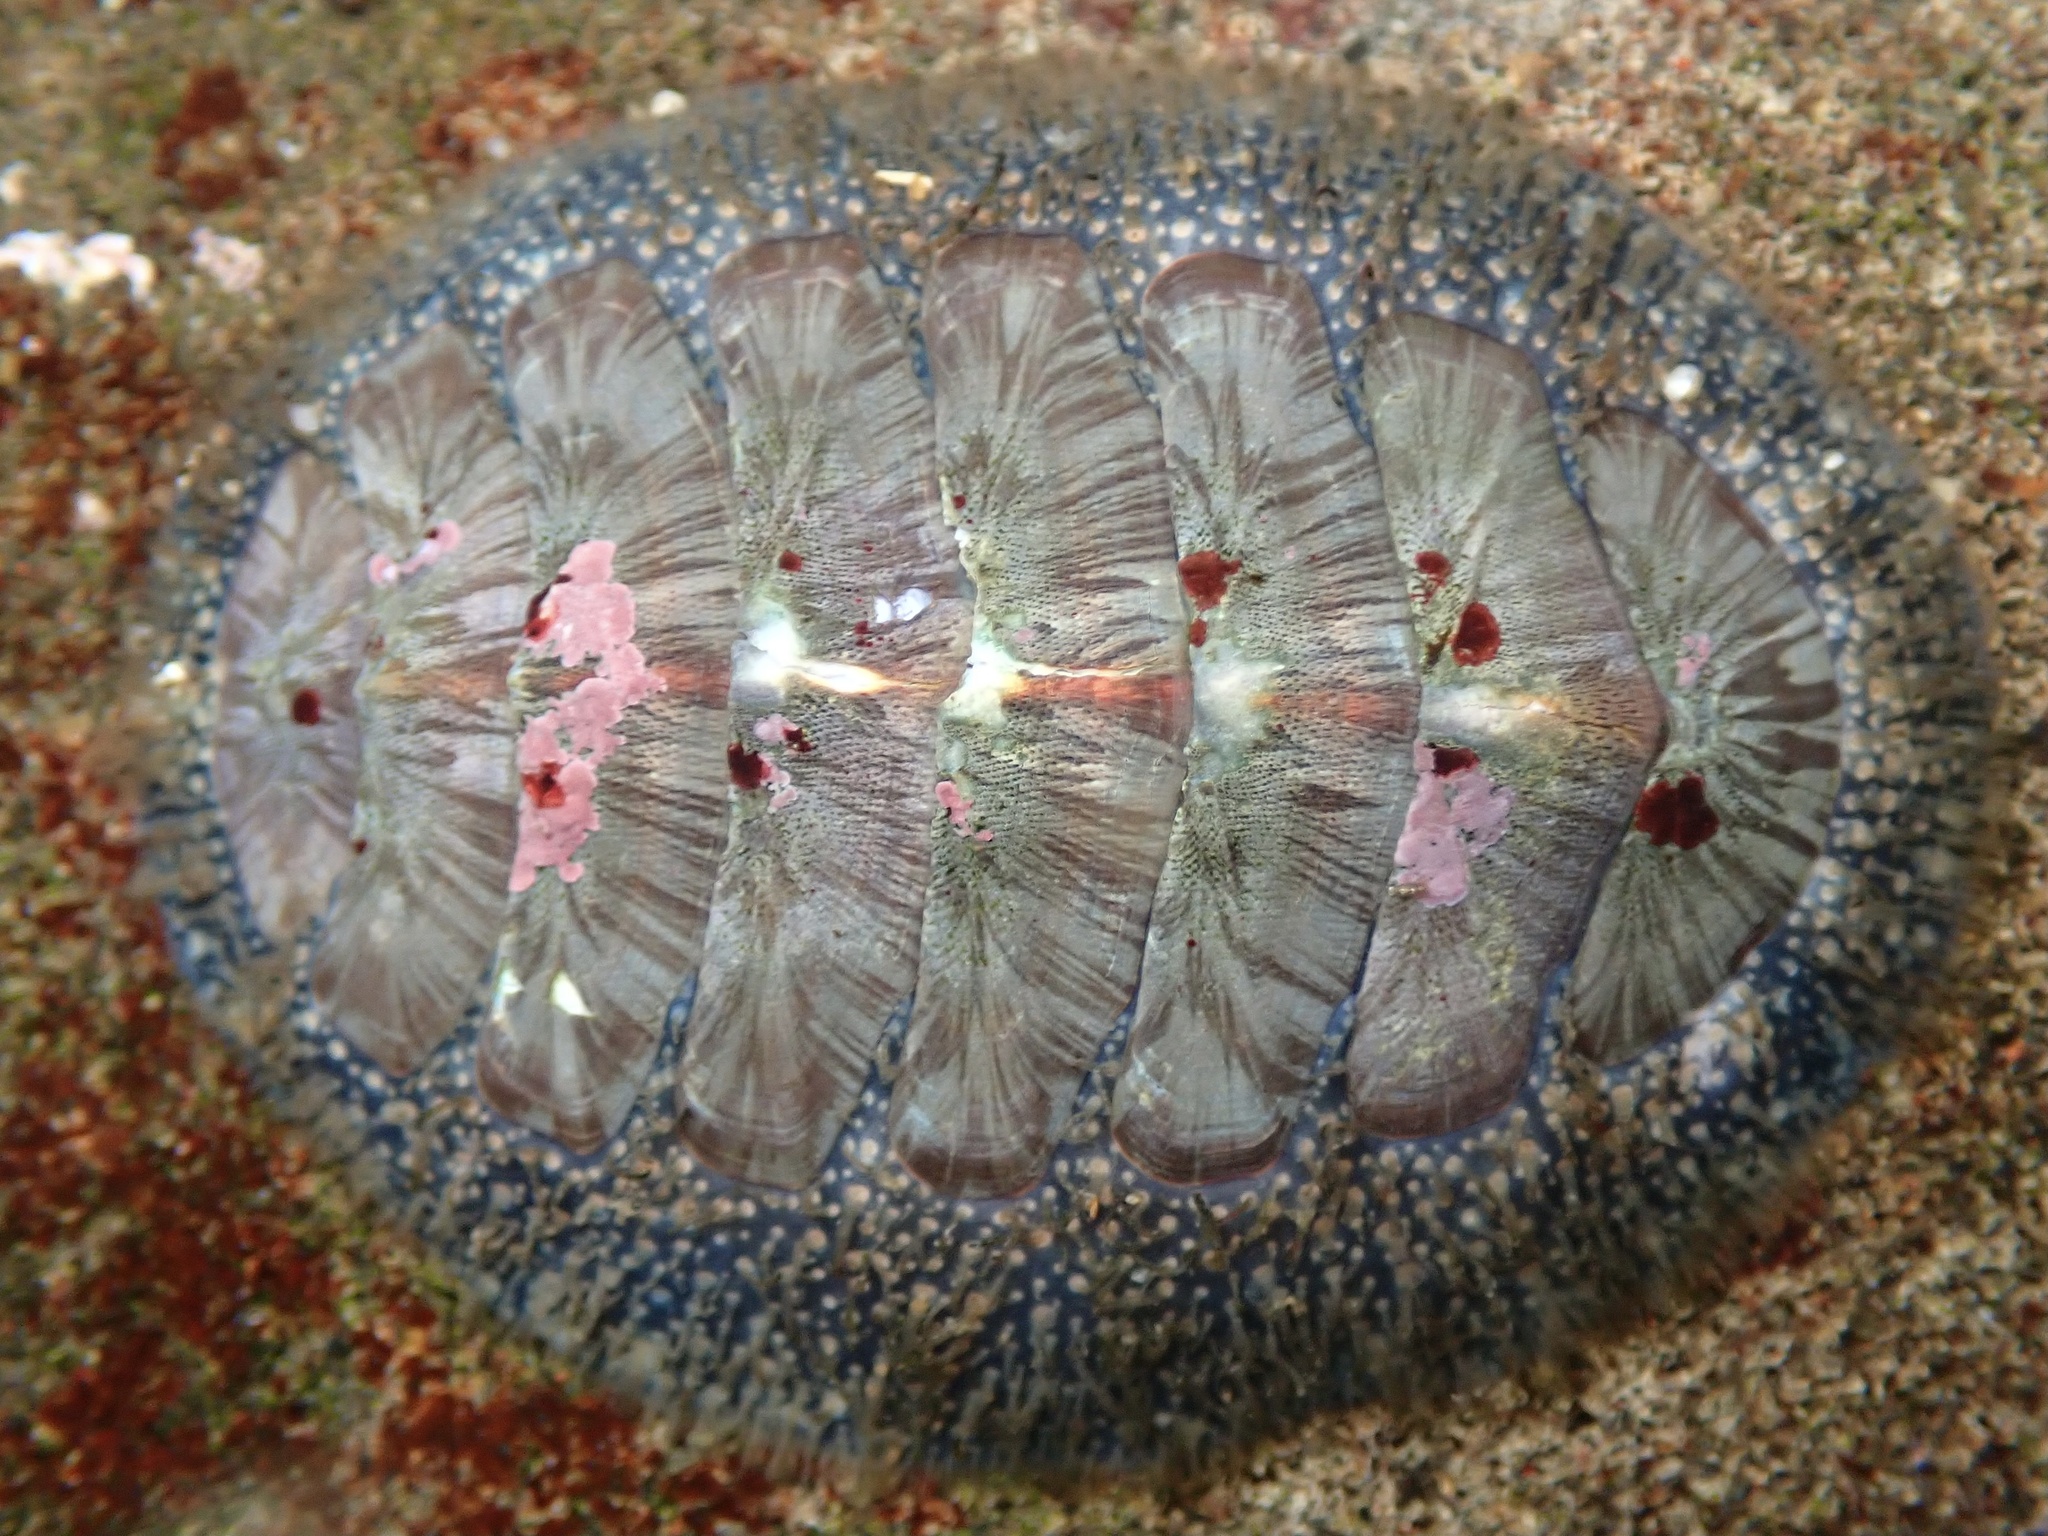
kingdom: Animalia
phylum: Mollusca
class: Polyplacophora
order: Chitonida
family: Mopaliidae
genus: Mopalia
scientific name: Mopalia lignosa
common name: Woody chiton
